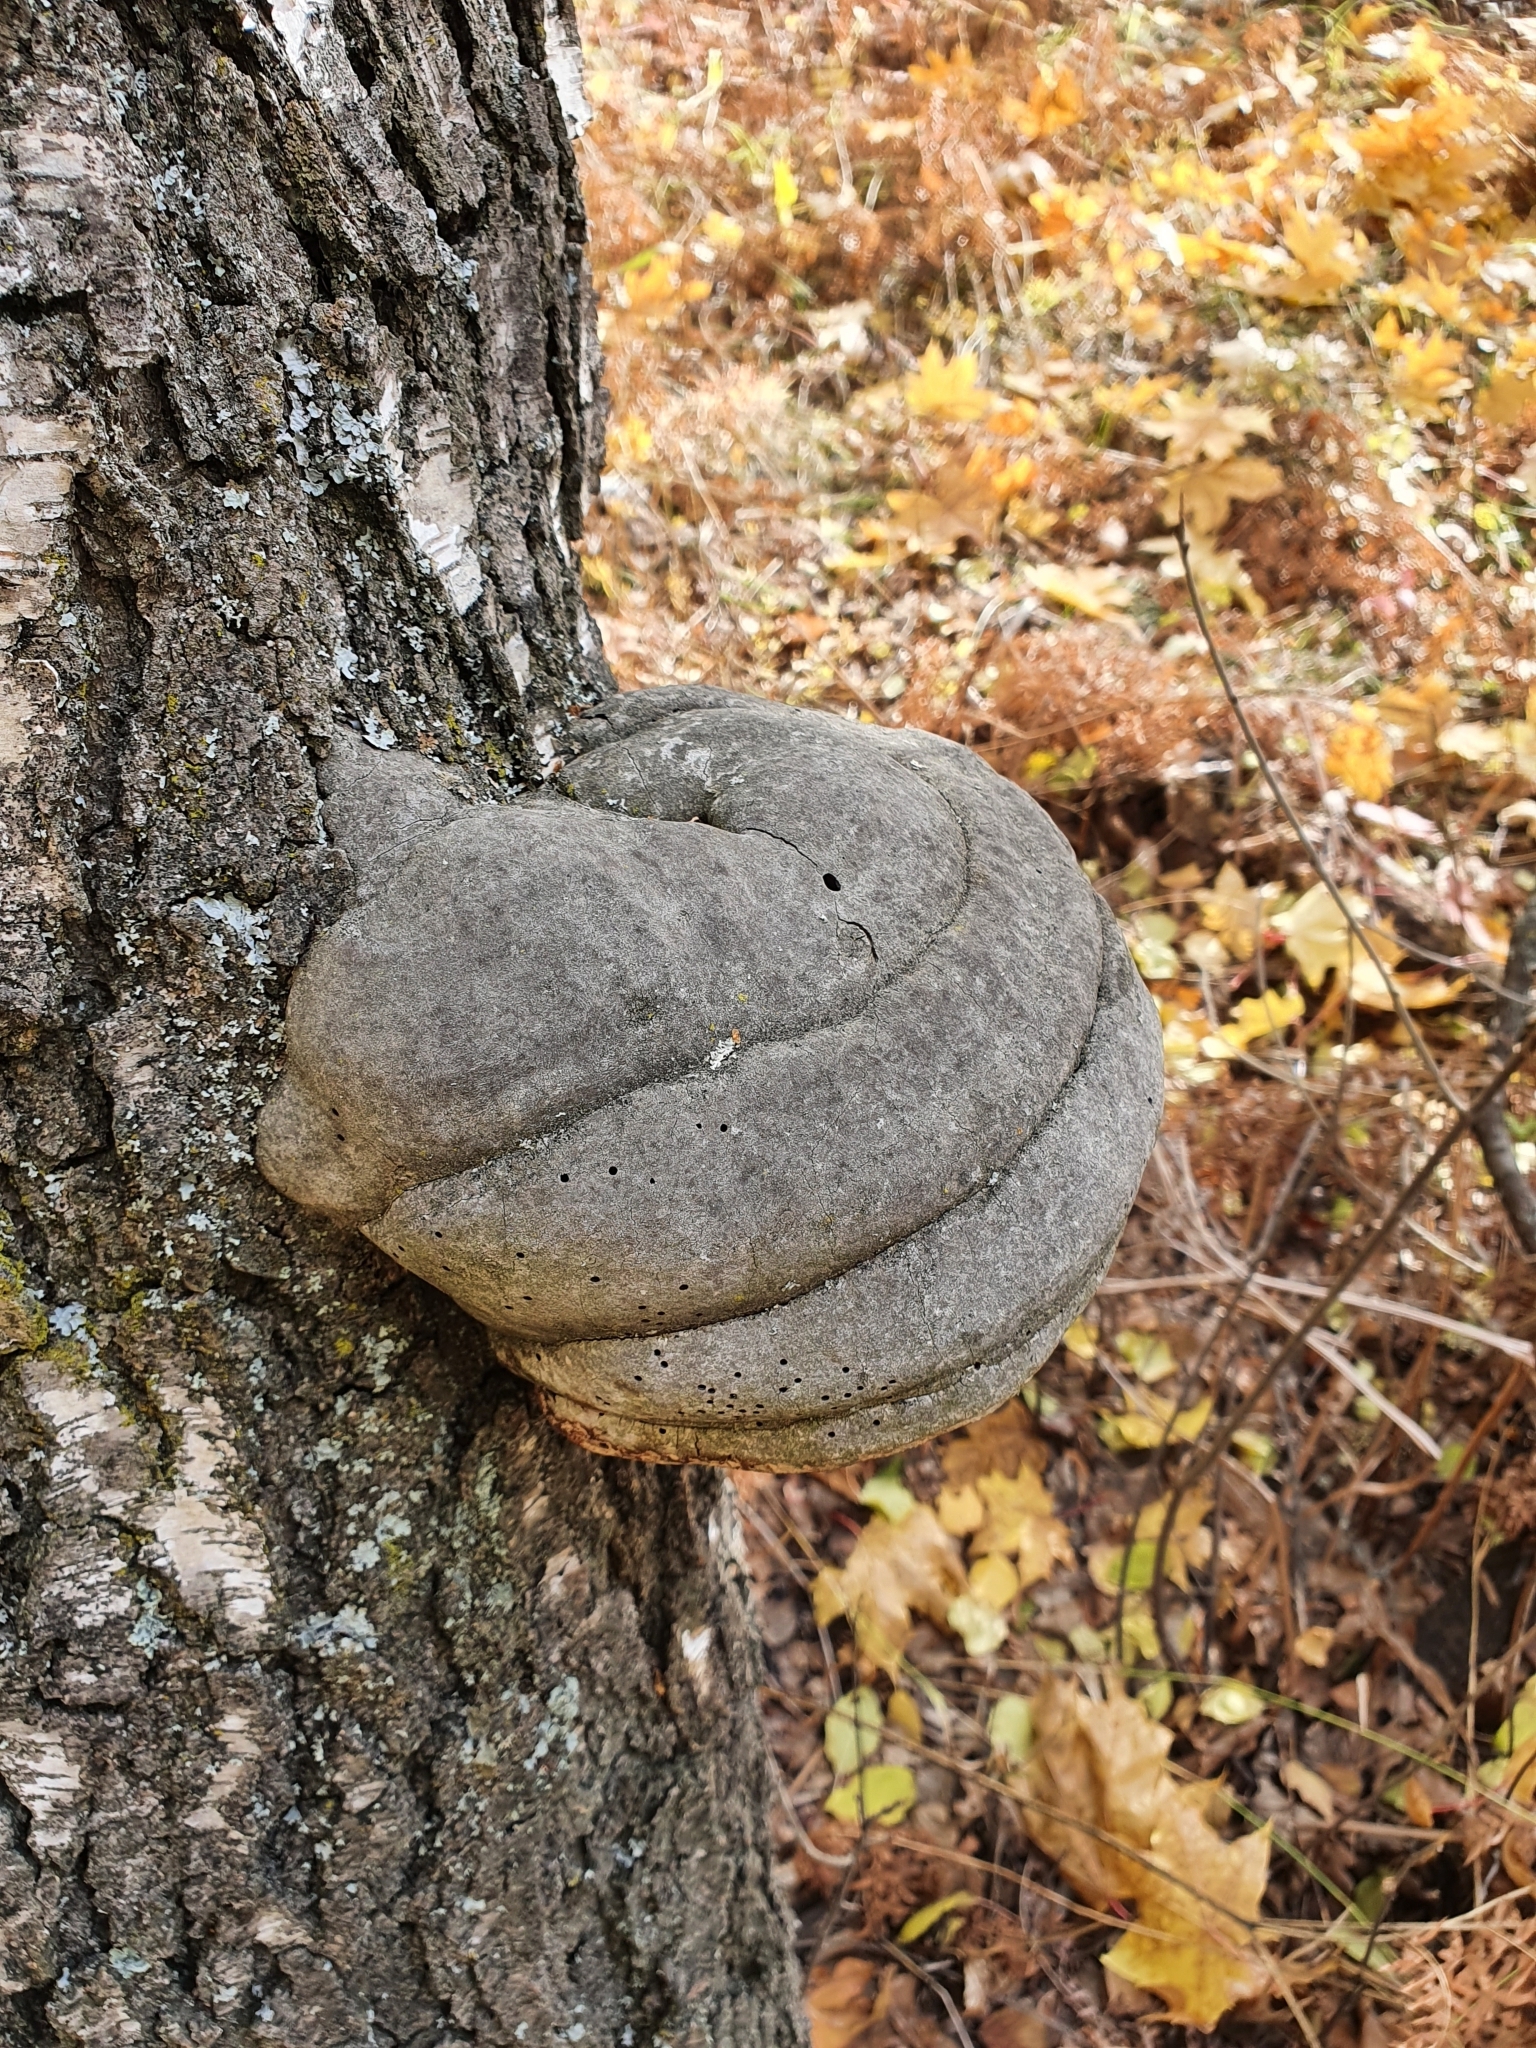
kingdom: Fungi
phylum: Basidiomycota
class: Agaricomycetes
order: Polyporales
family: Polyporaceae
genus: Fomes
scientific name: Fomes fomentarius
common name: Hoof fungus
